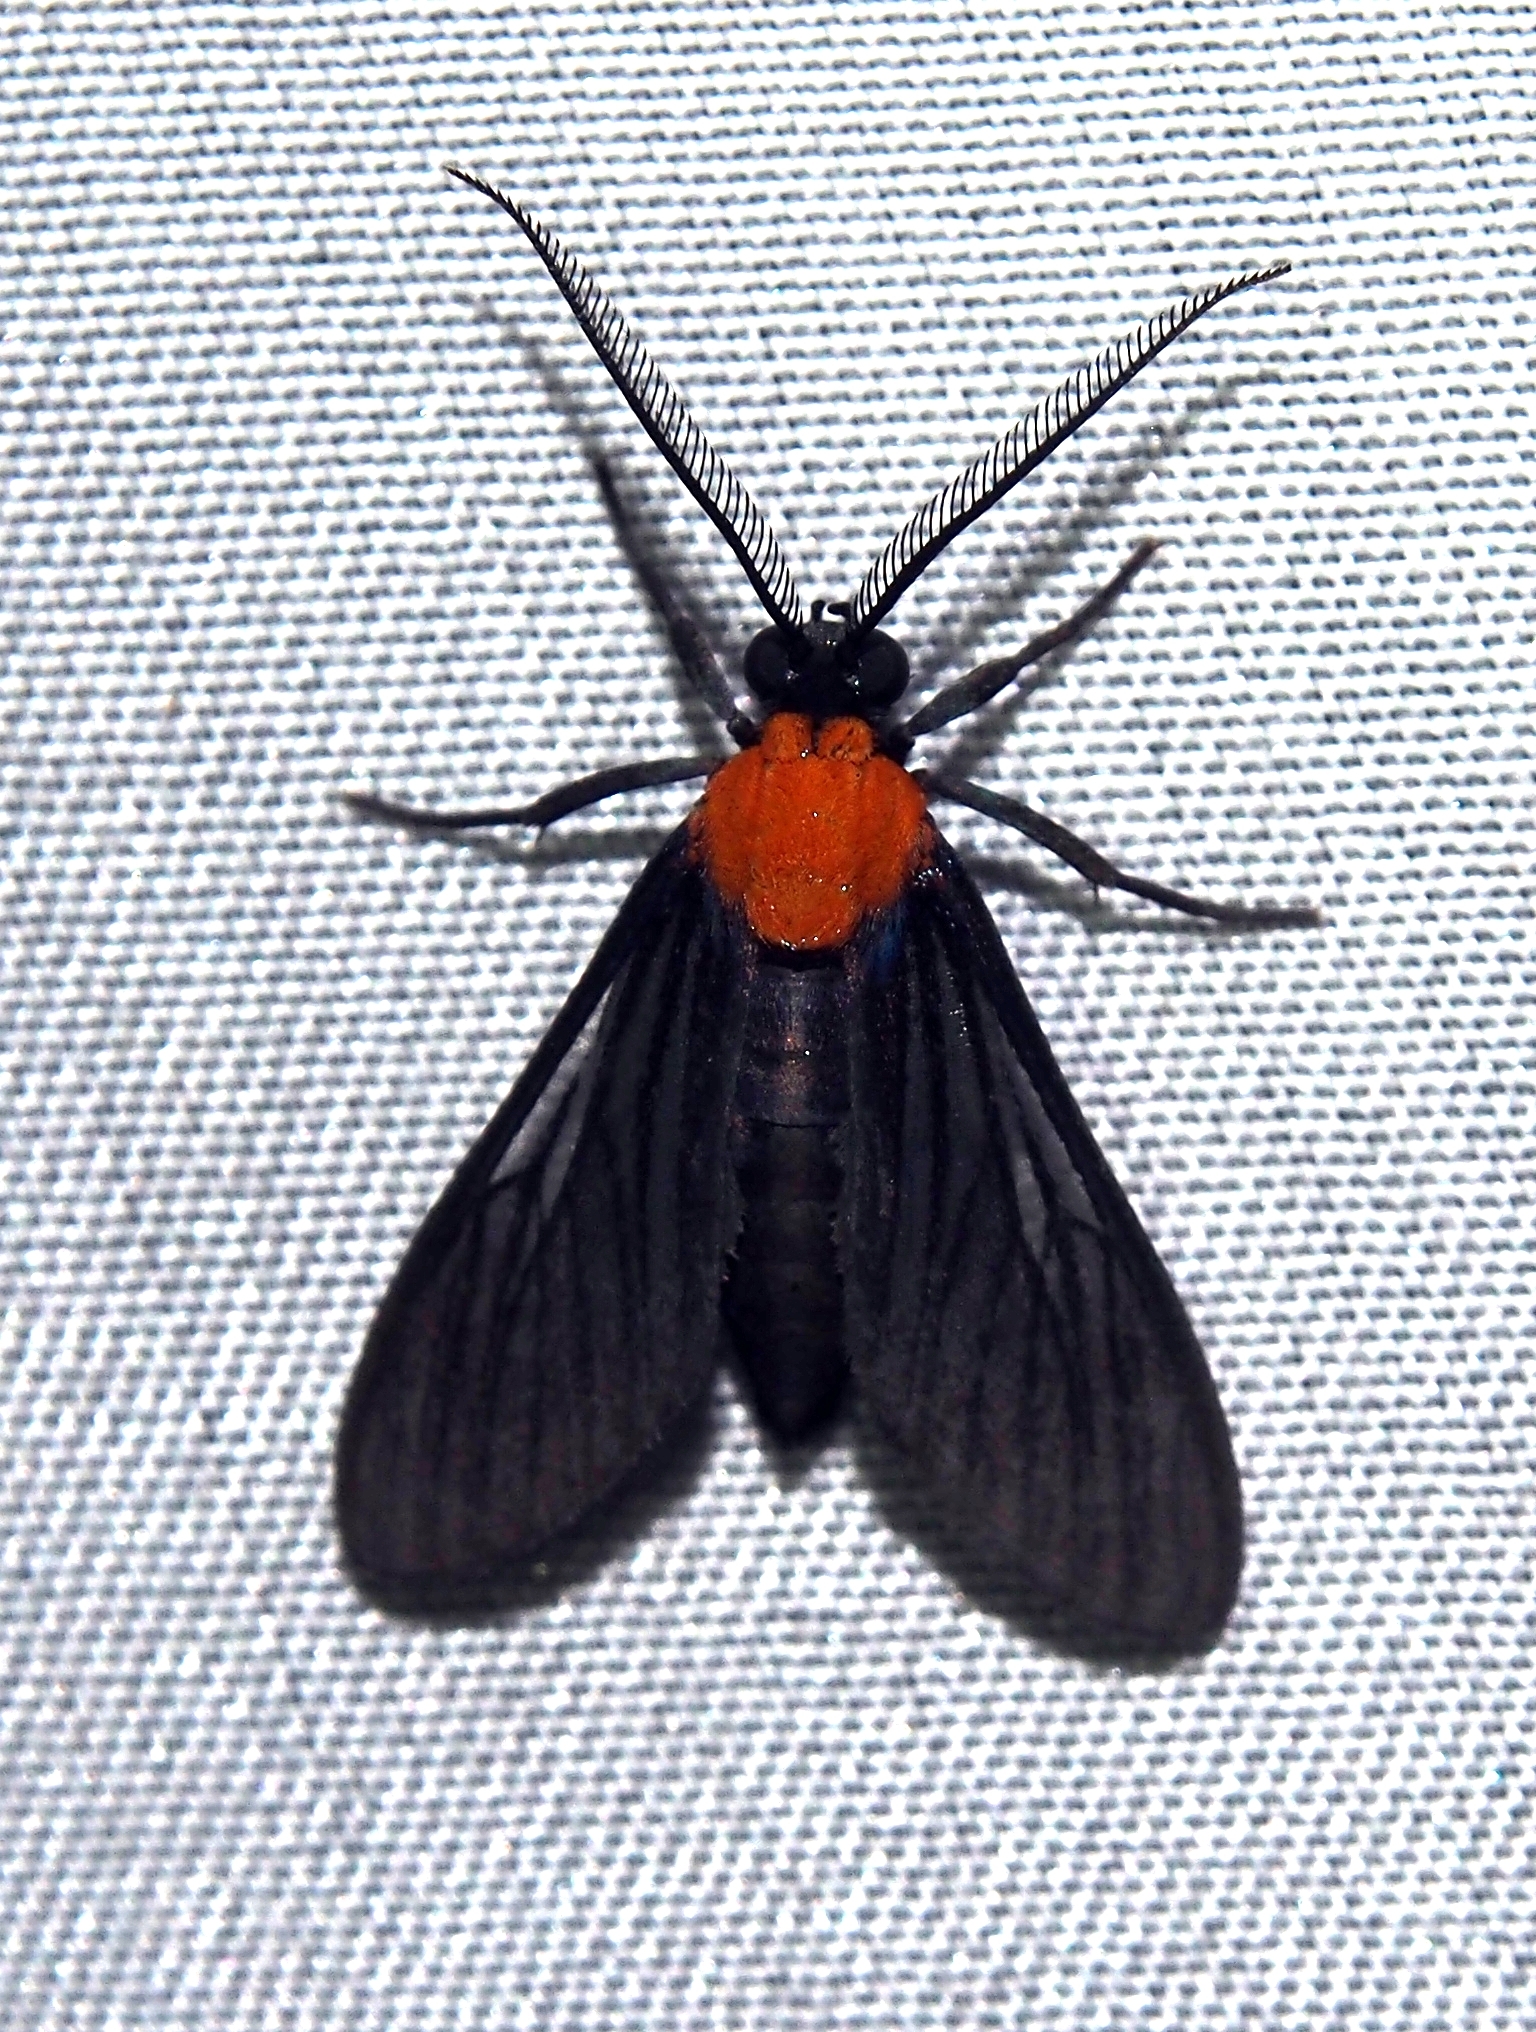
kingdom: Animalia
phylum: Arthropoda
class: Insecta
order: Lepidoptera
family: Erebidae
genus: Saurita
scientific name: Saurita temenus
